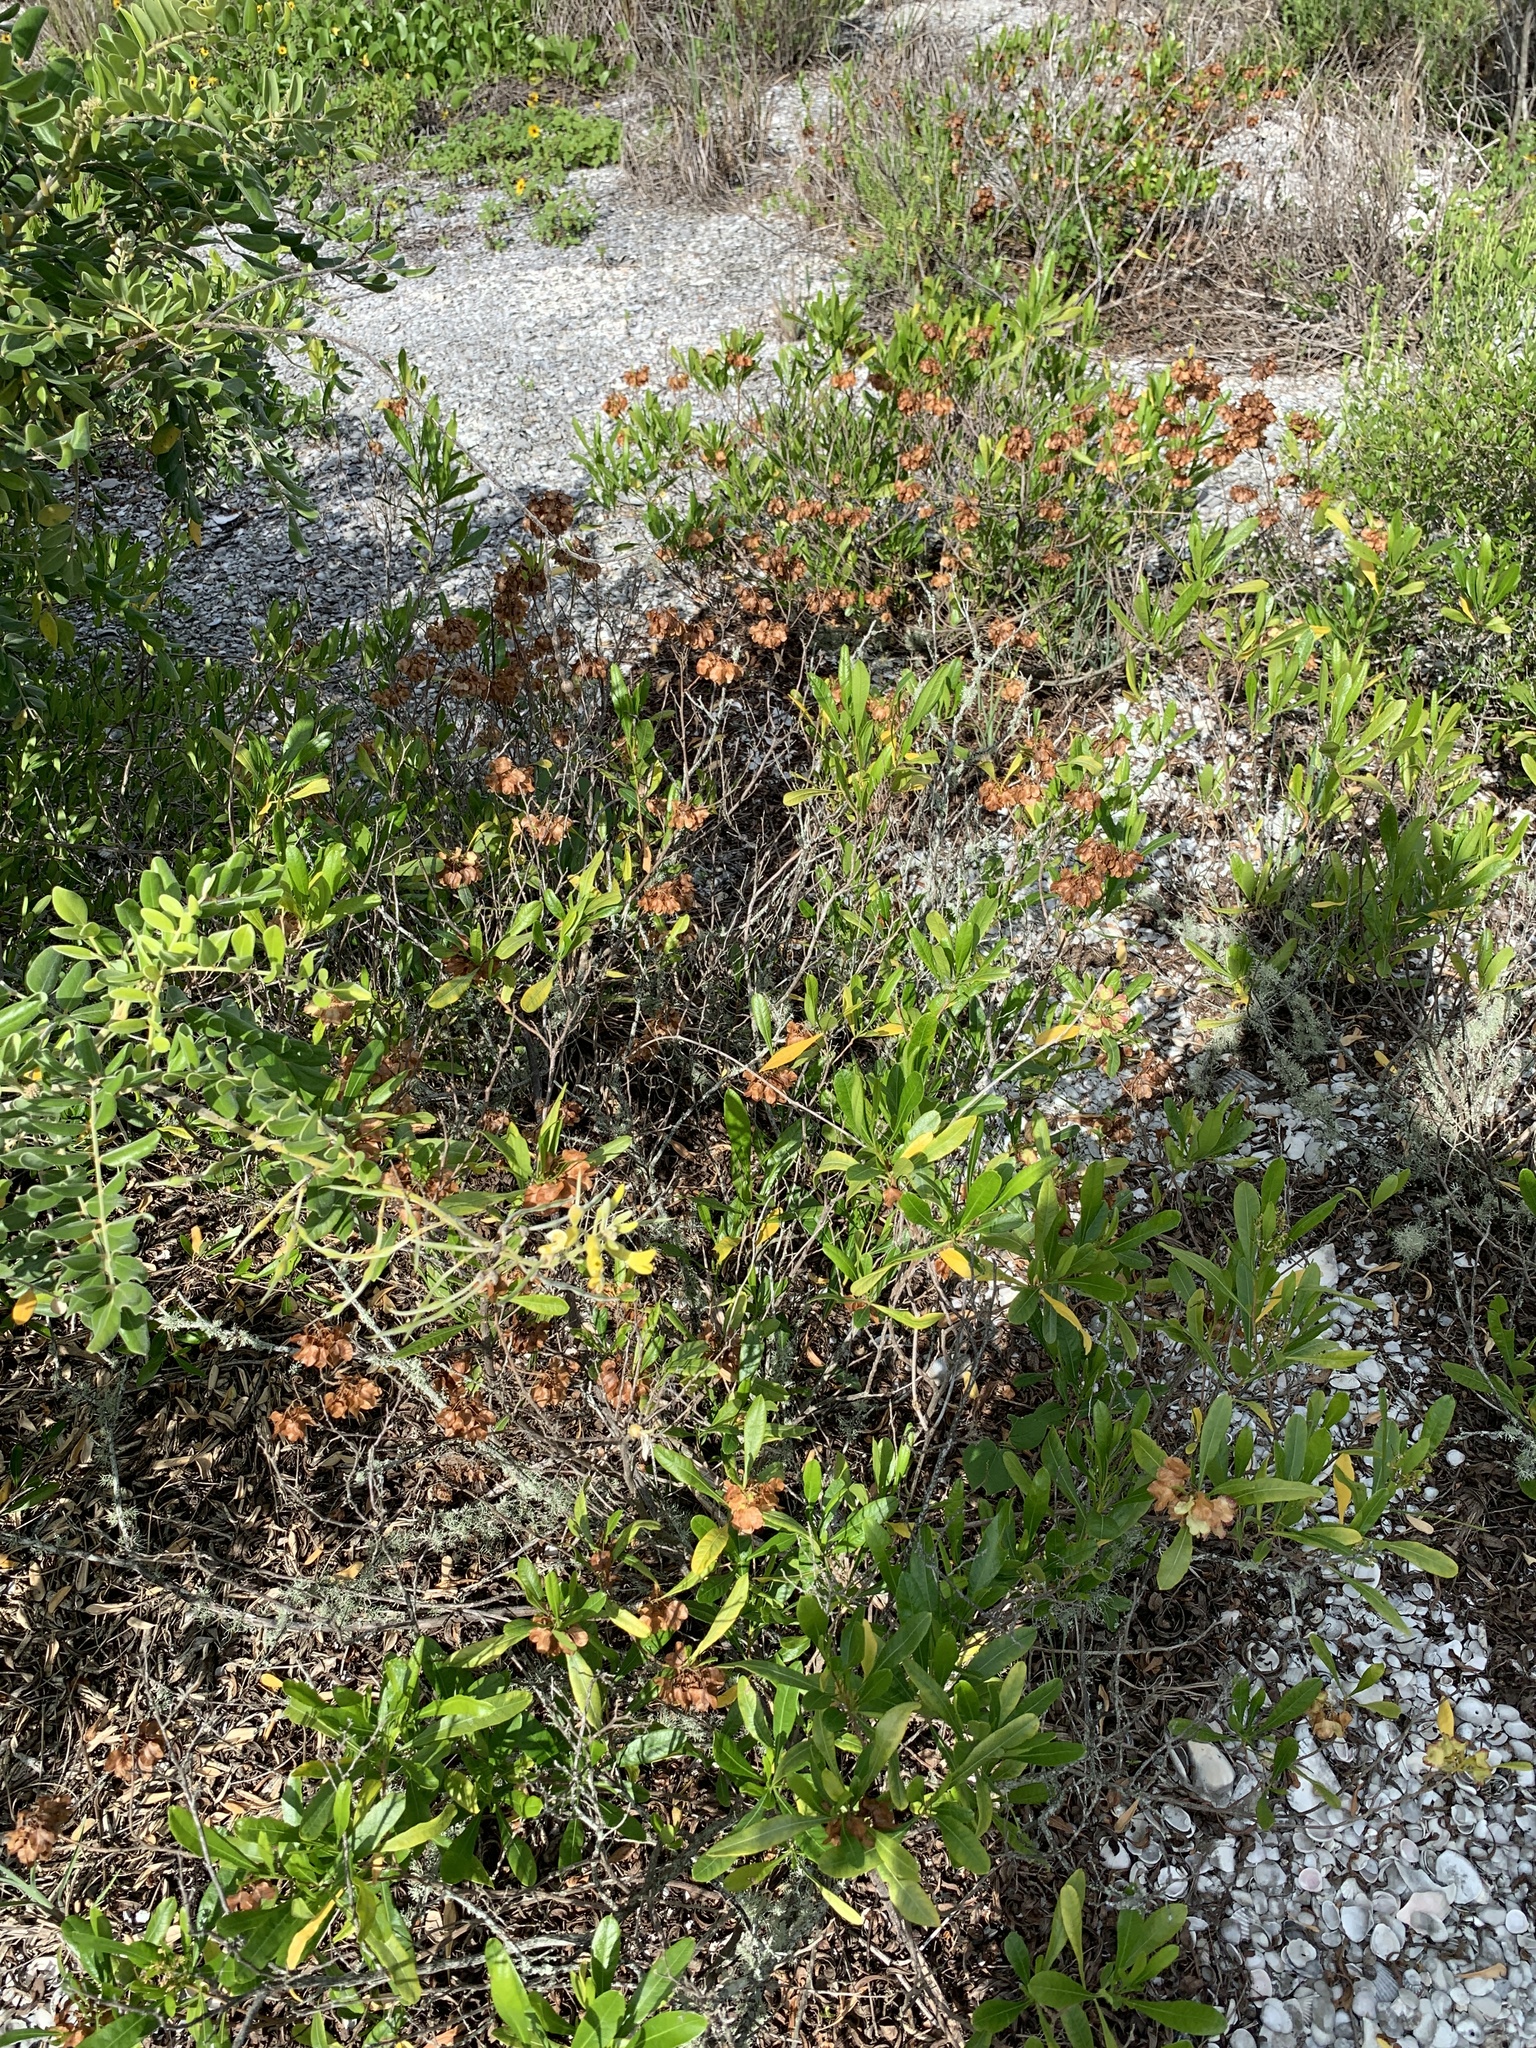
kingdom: Plantae
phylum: Tracheophyta
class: Magnoliopsida
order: Sapindales
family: Sapindaceae
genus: Dodonaea
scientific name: Dodonaea viscosa
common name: Hopbush
